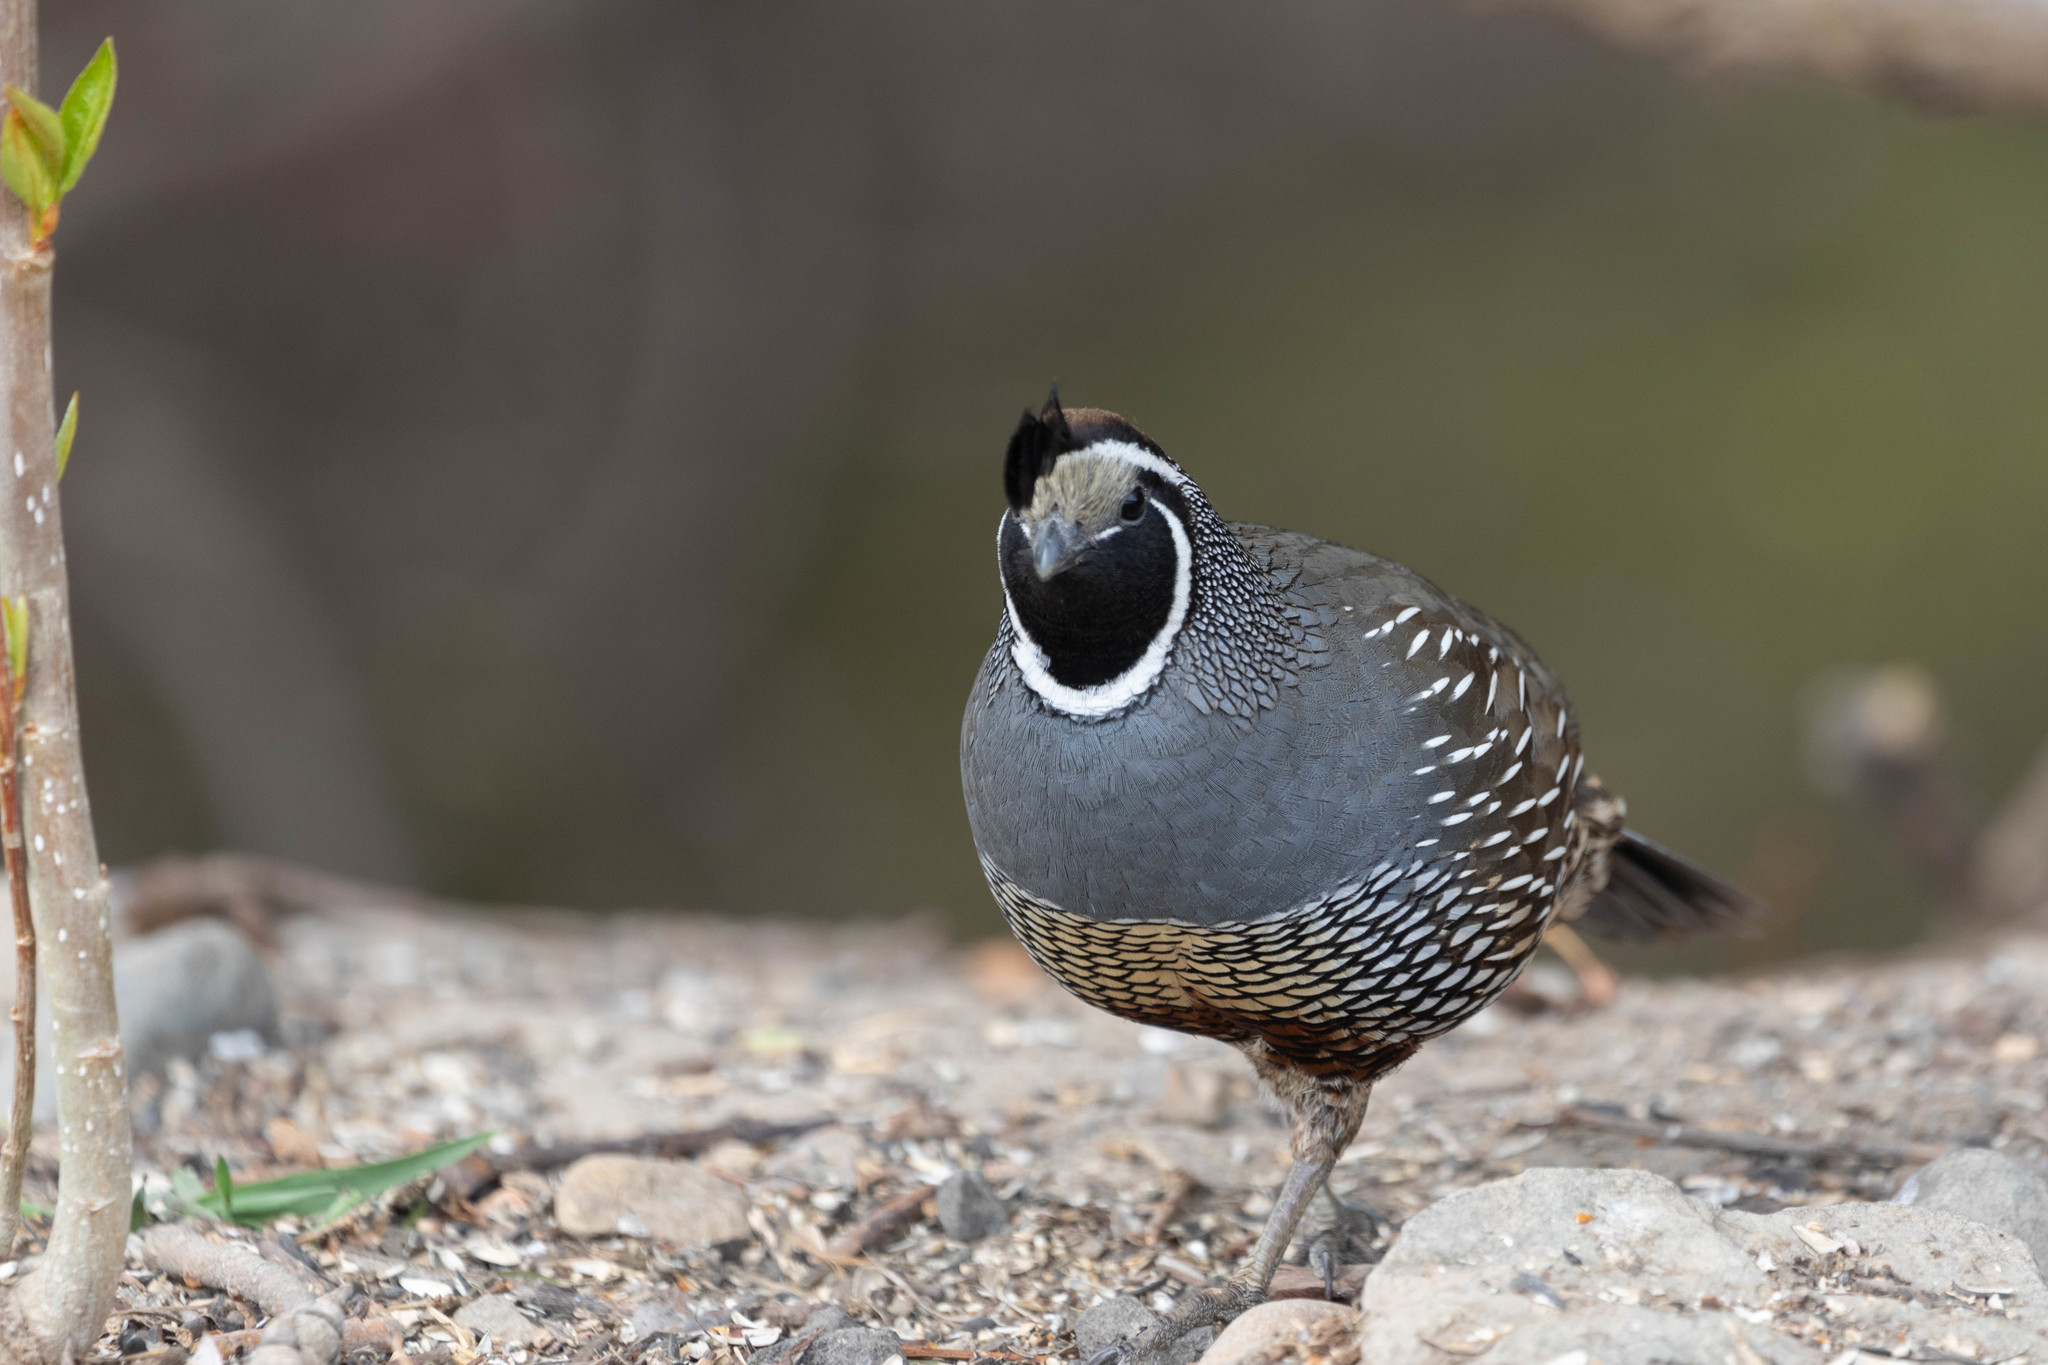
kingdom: Animalia
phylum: Chordata
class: Aves
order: Galliformes
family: Odontophoridae
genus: Callipepla
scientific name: Callipepla californica
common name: California quail
